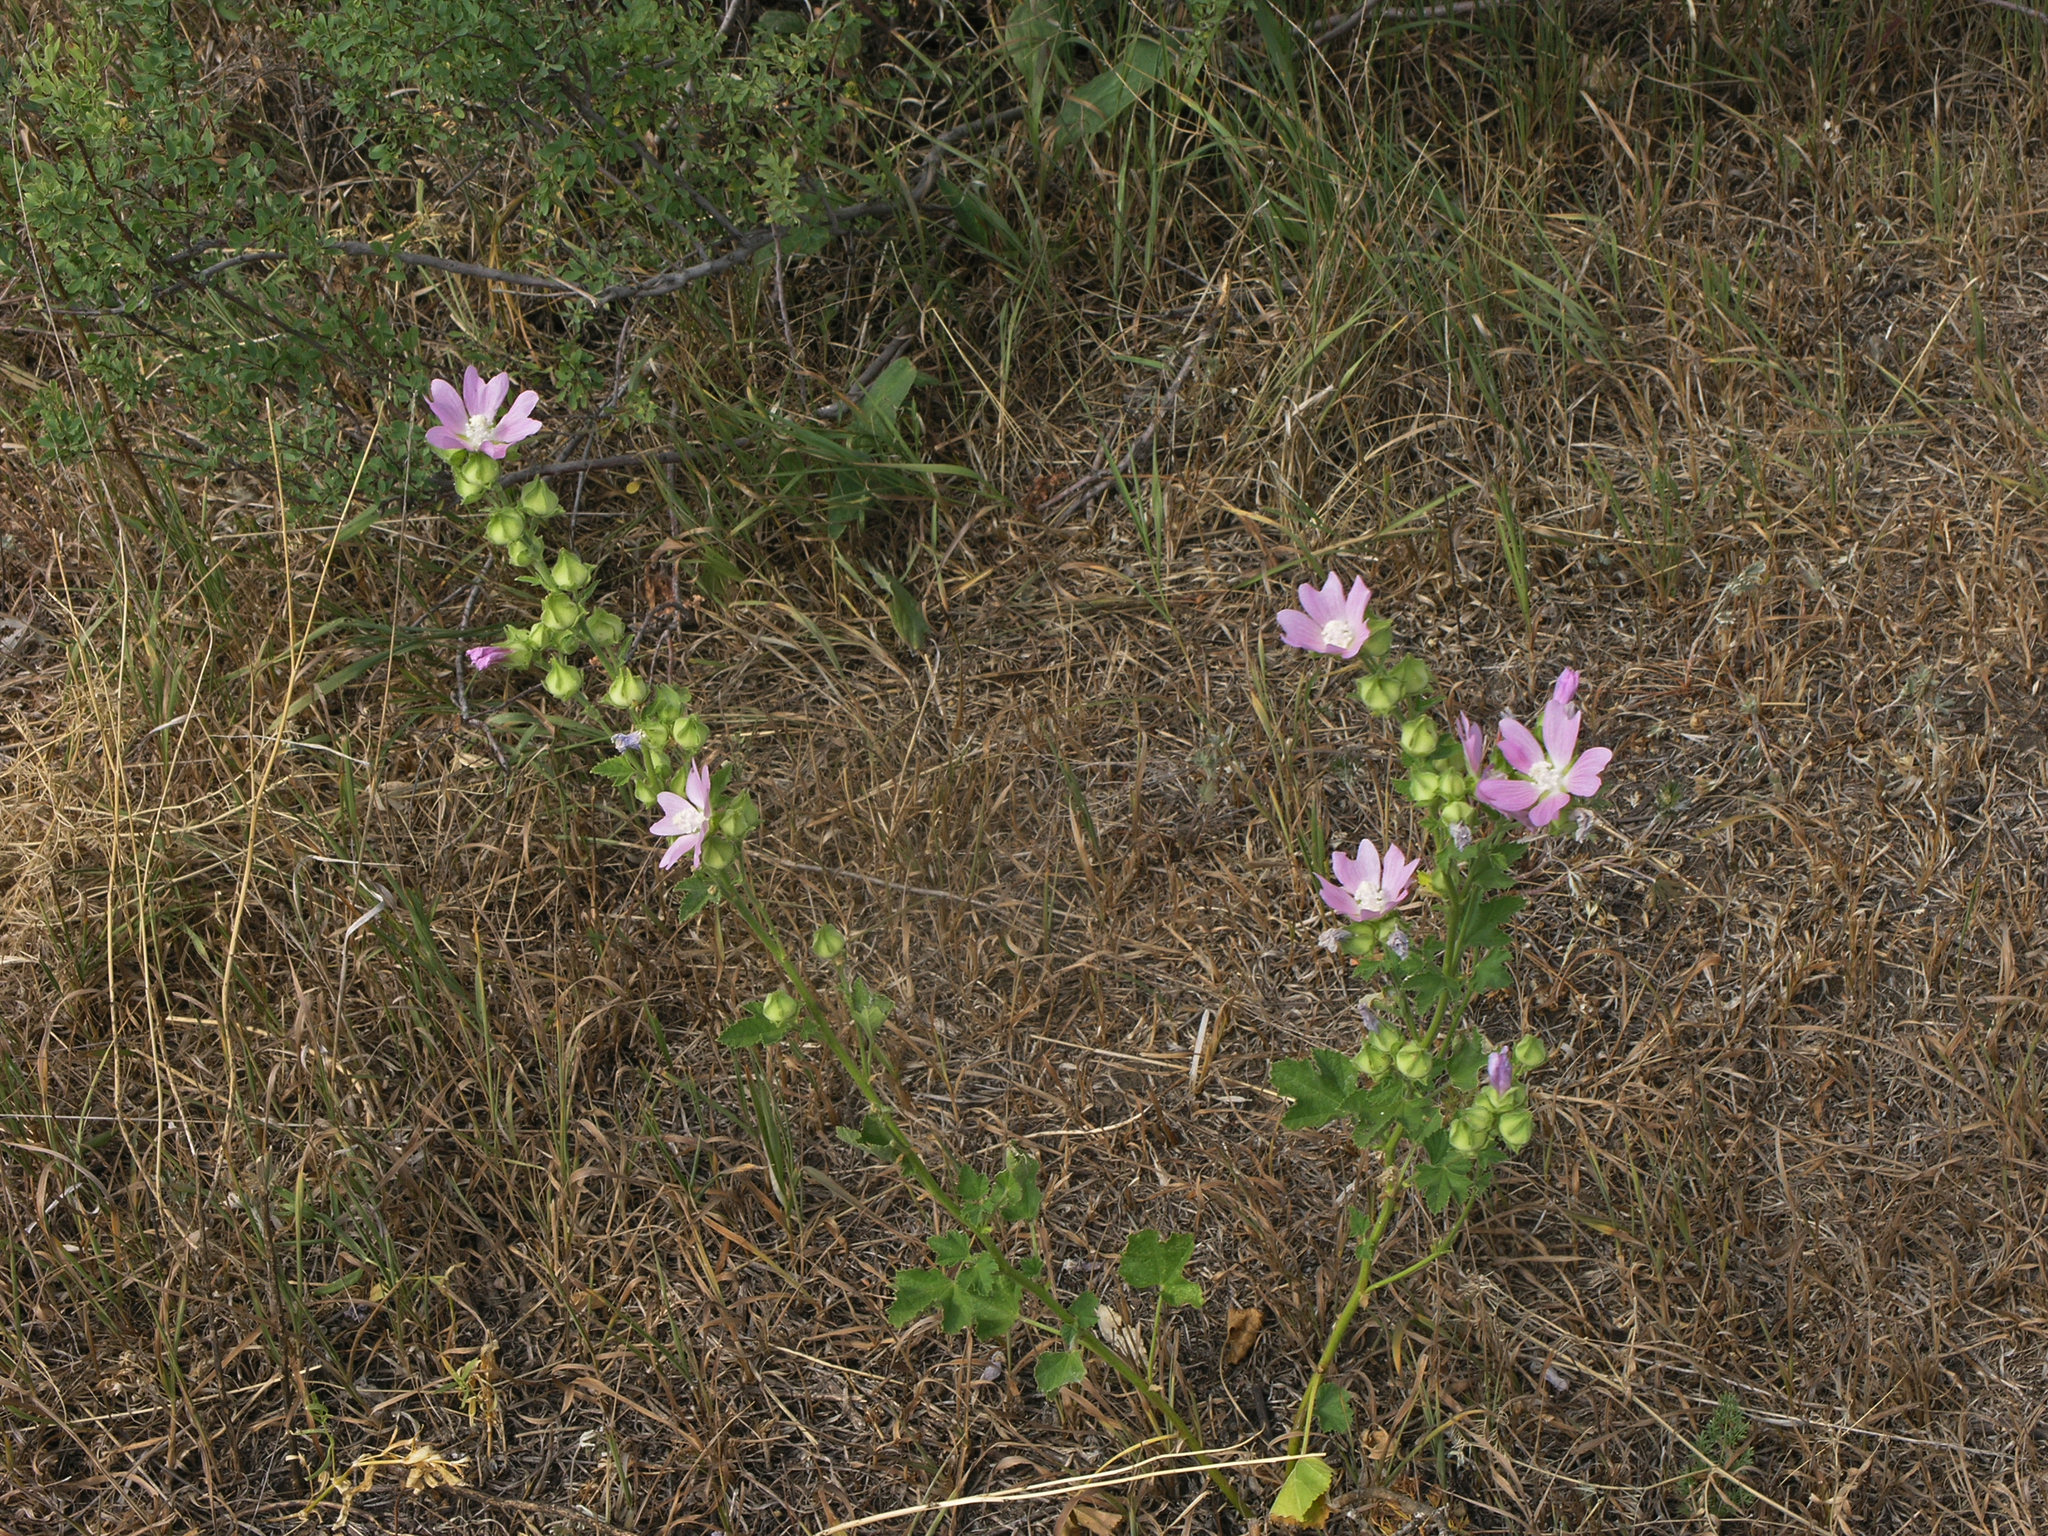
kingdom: Plantae
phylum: Tracheophyta
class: Magnoliopsida
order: Malvales
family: Malvaceae
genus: Malva
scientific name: Malva thuringiaca
